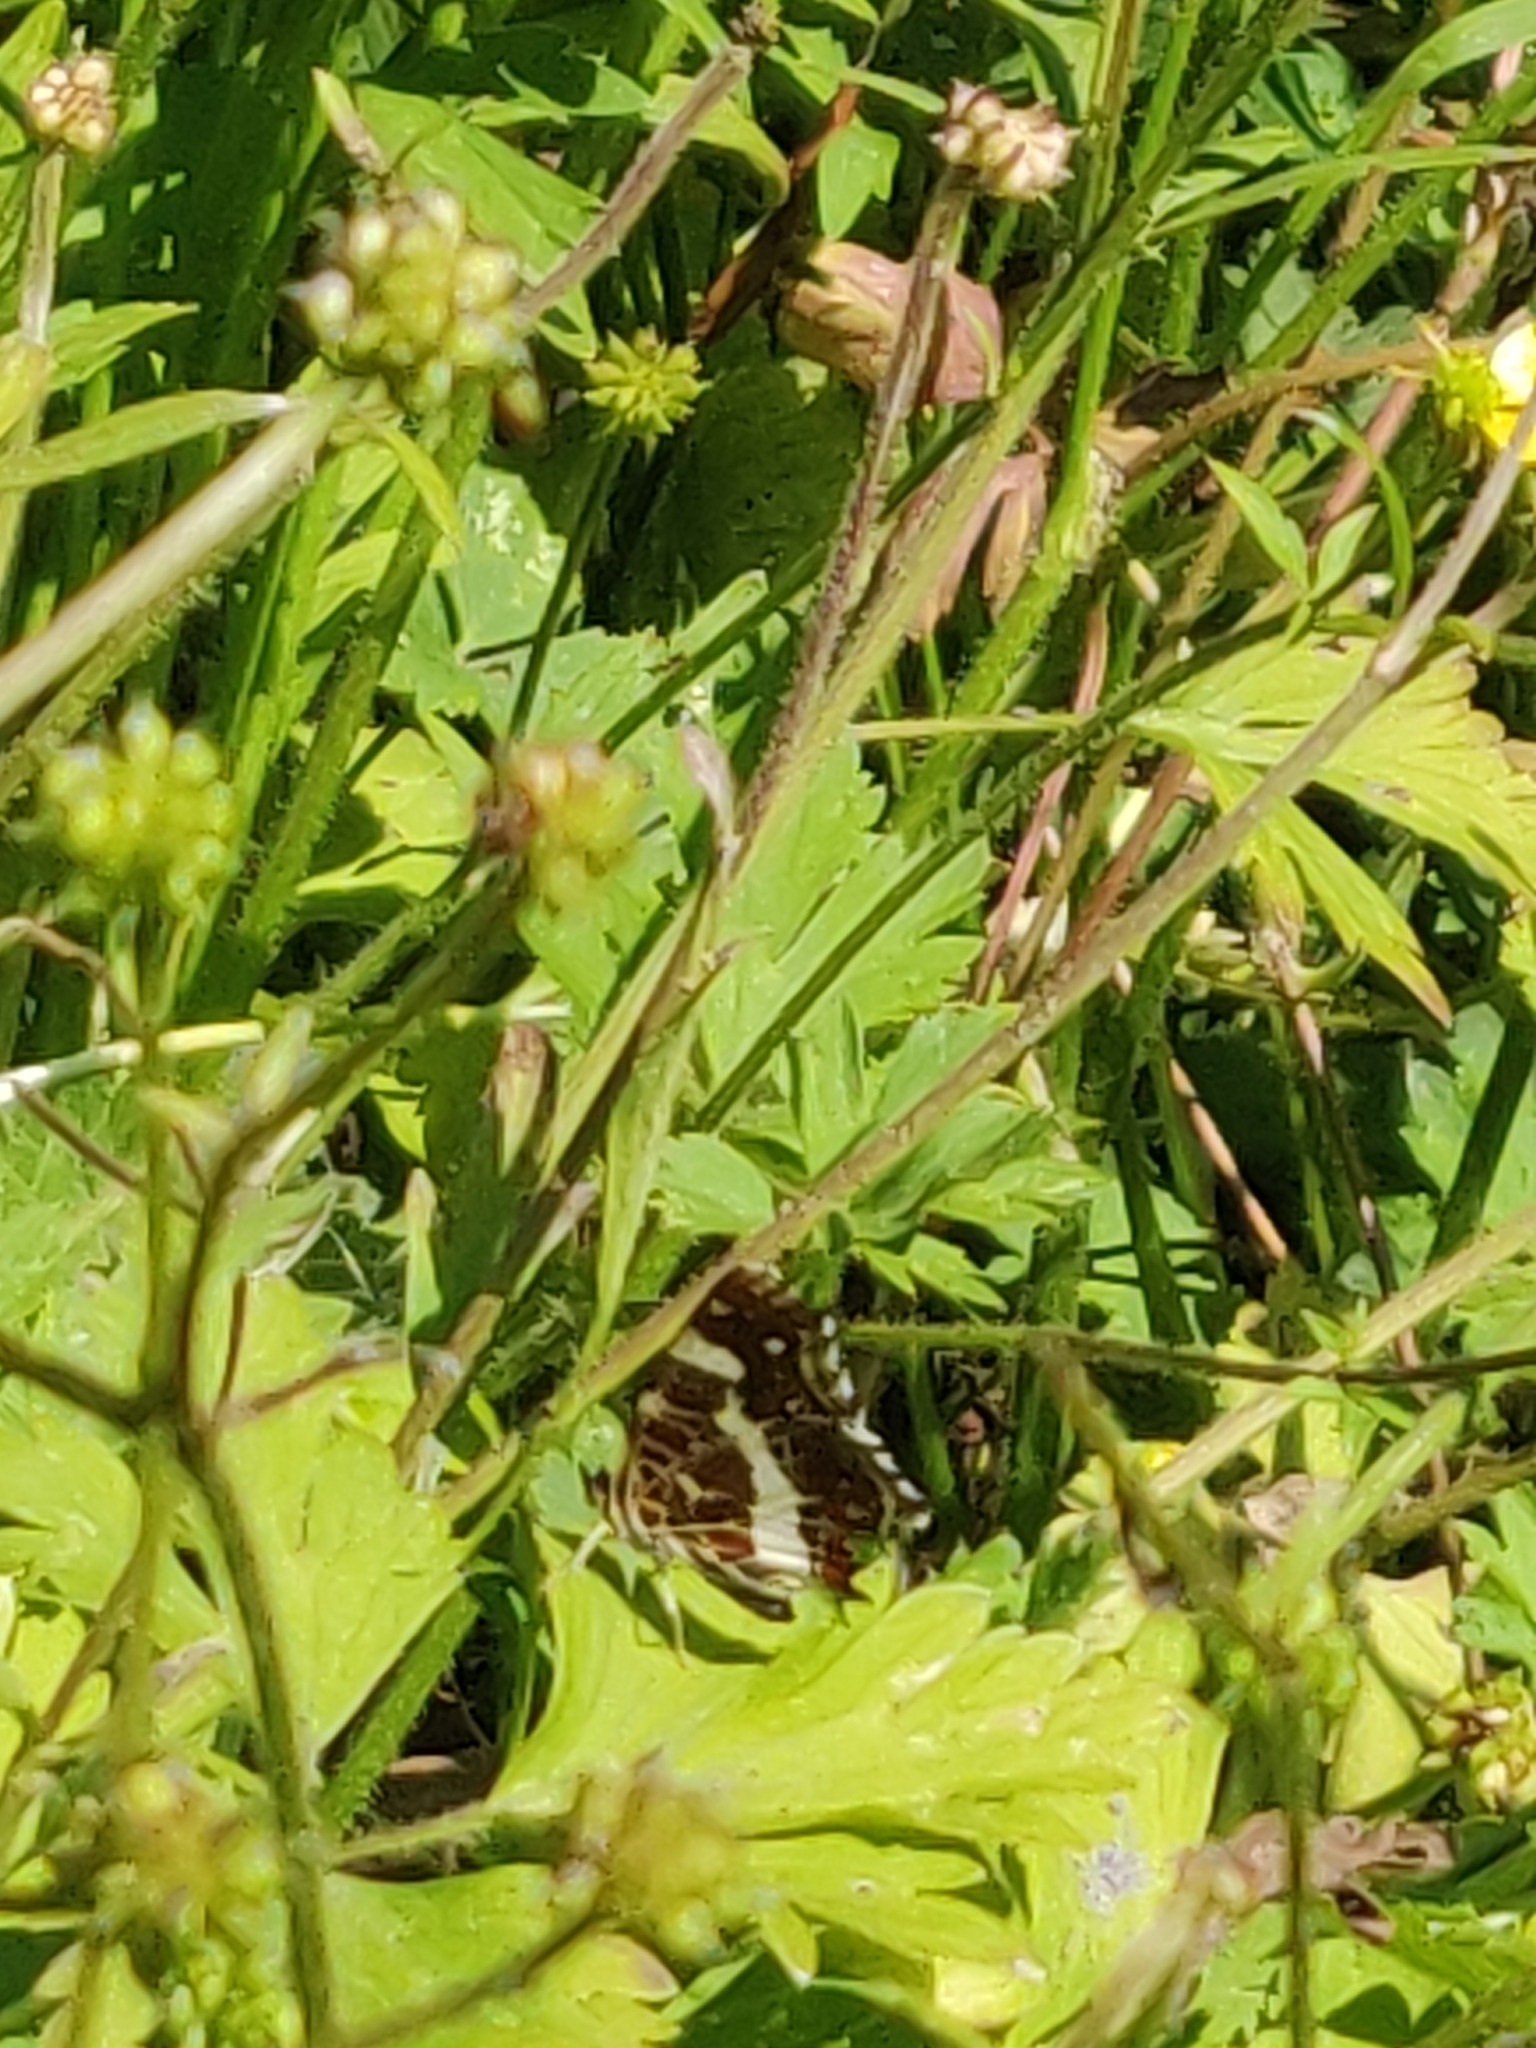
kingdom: Animalia
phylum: Arthropoda
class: Insecta
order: Lepidoptera
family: Nymphalidae
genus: Araschnia
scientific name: Araschnia levana
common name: Map butterfly
